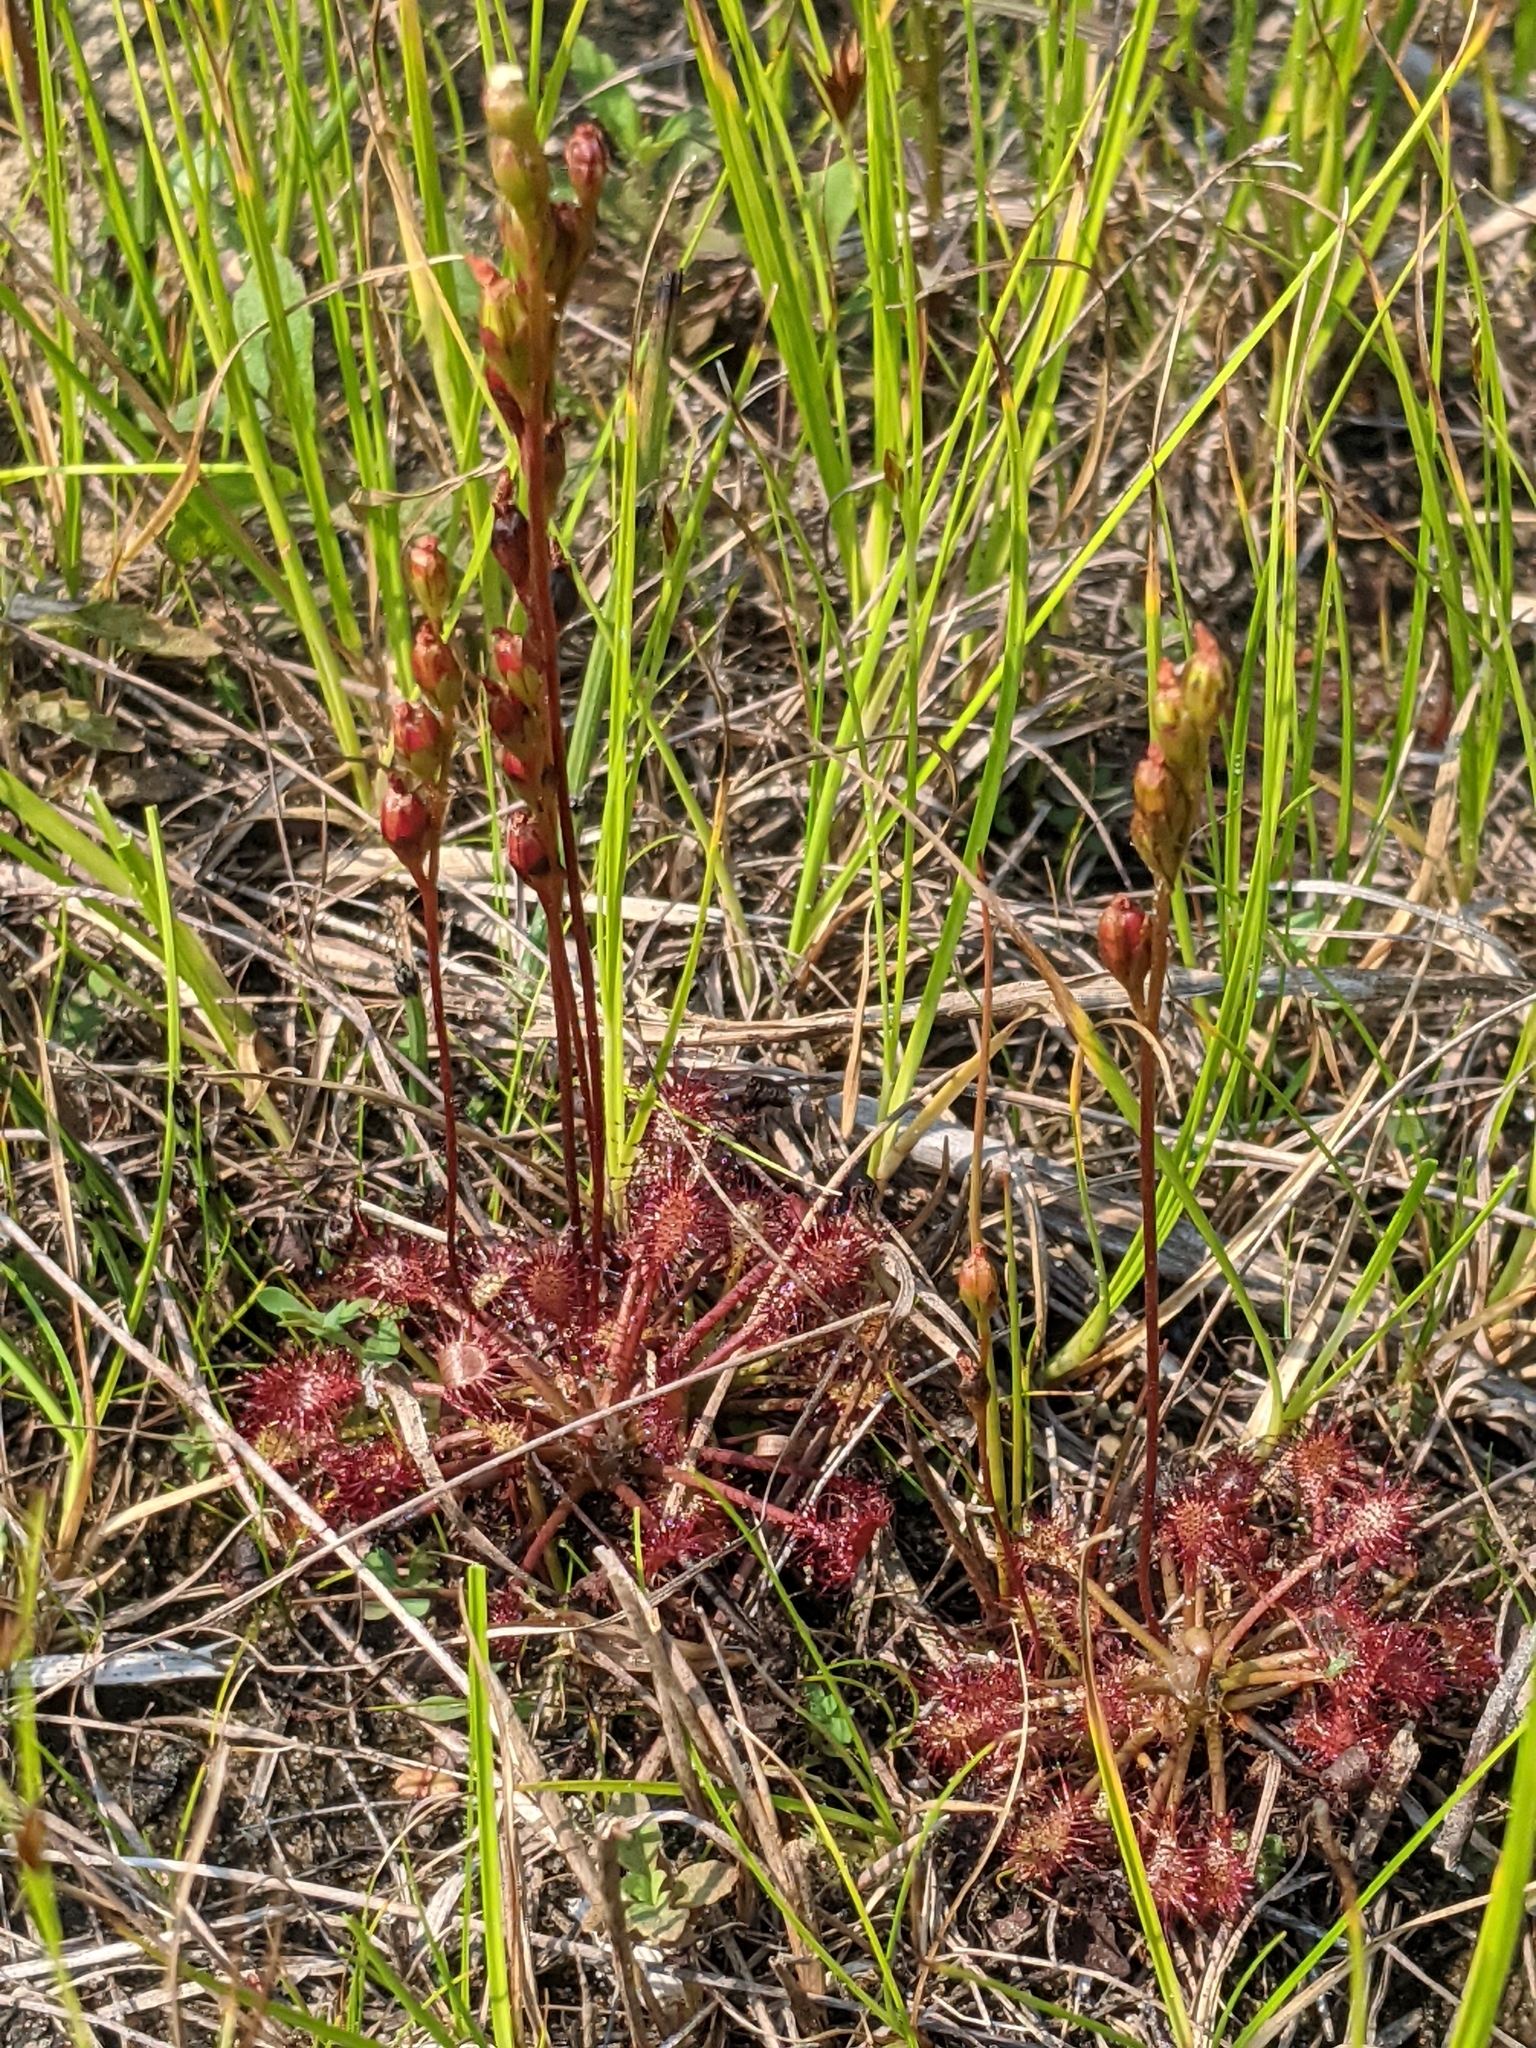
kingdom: Plantae
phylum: Tracheophyta
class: Magnoliopsida
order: Caryophyllales
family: Droseraceae
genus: Drosera
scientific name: Drosera intermedia
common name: Oblong-leaved sundew
